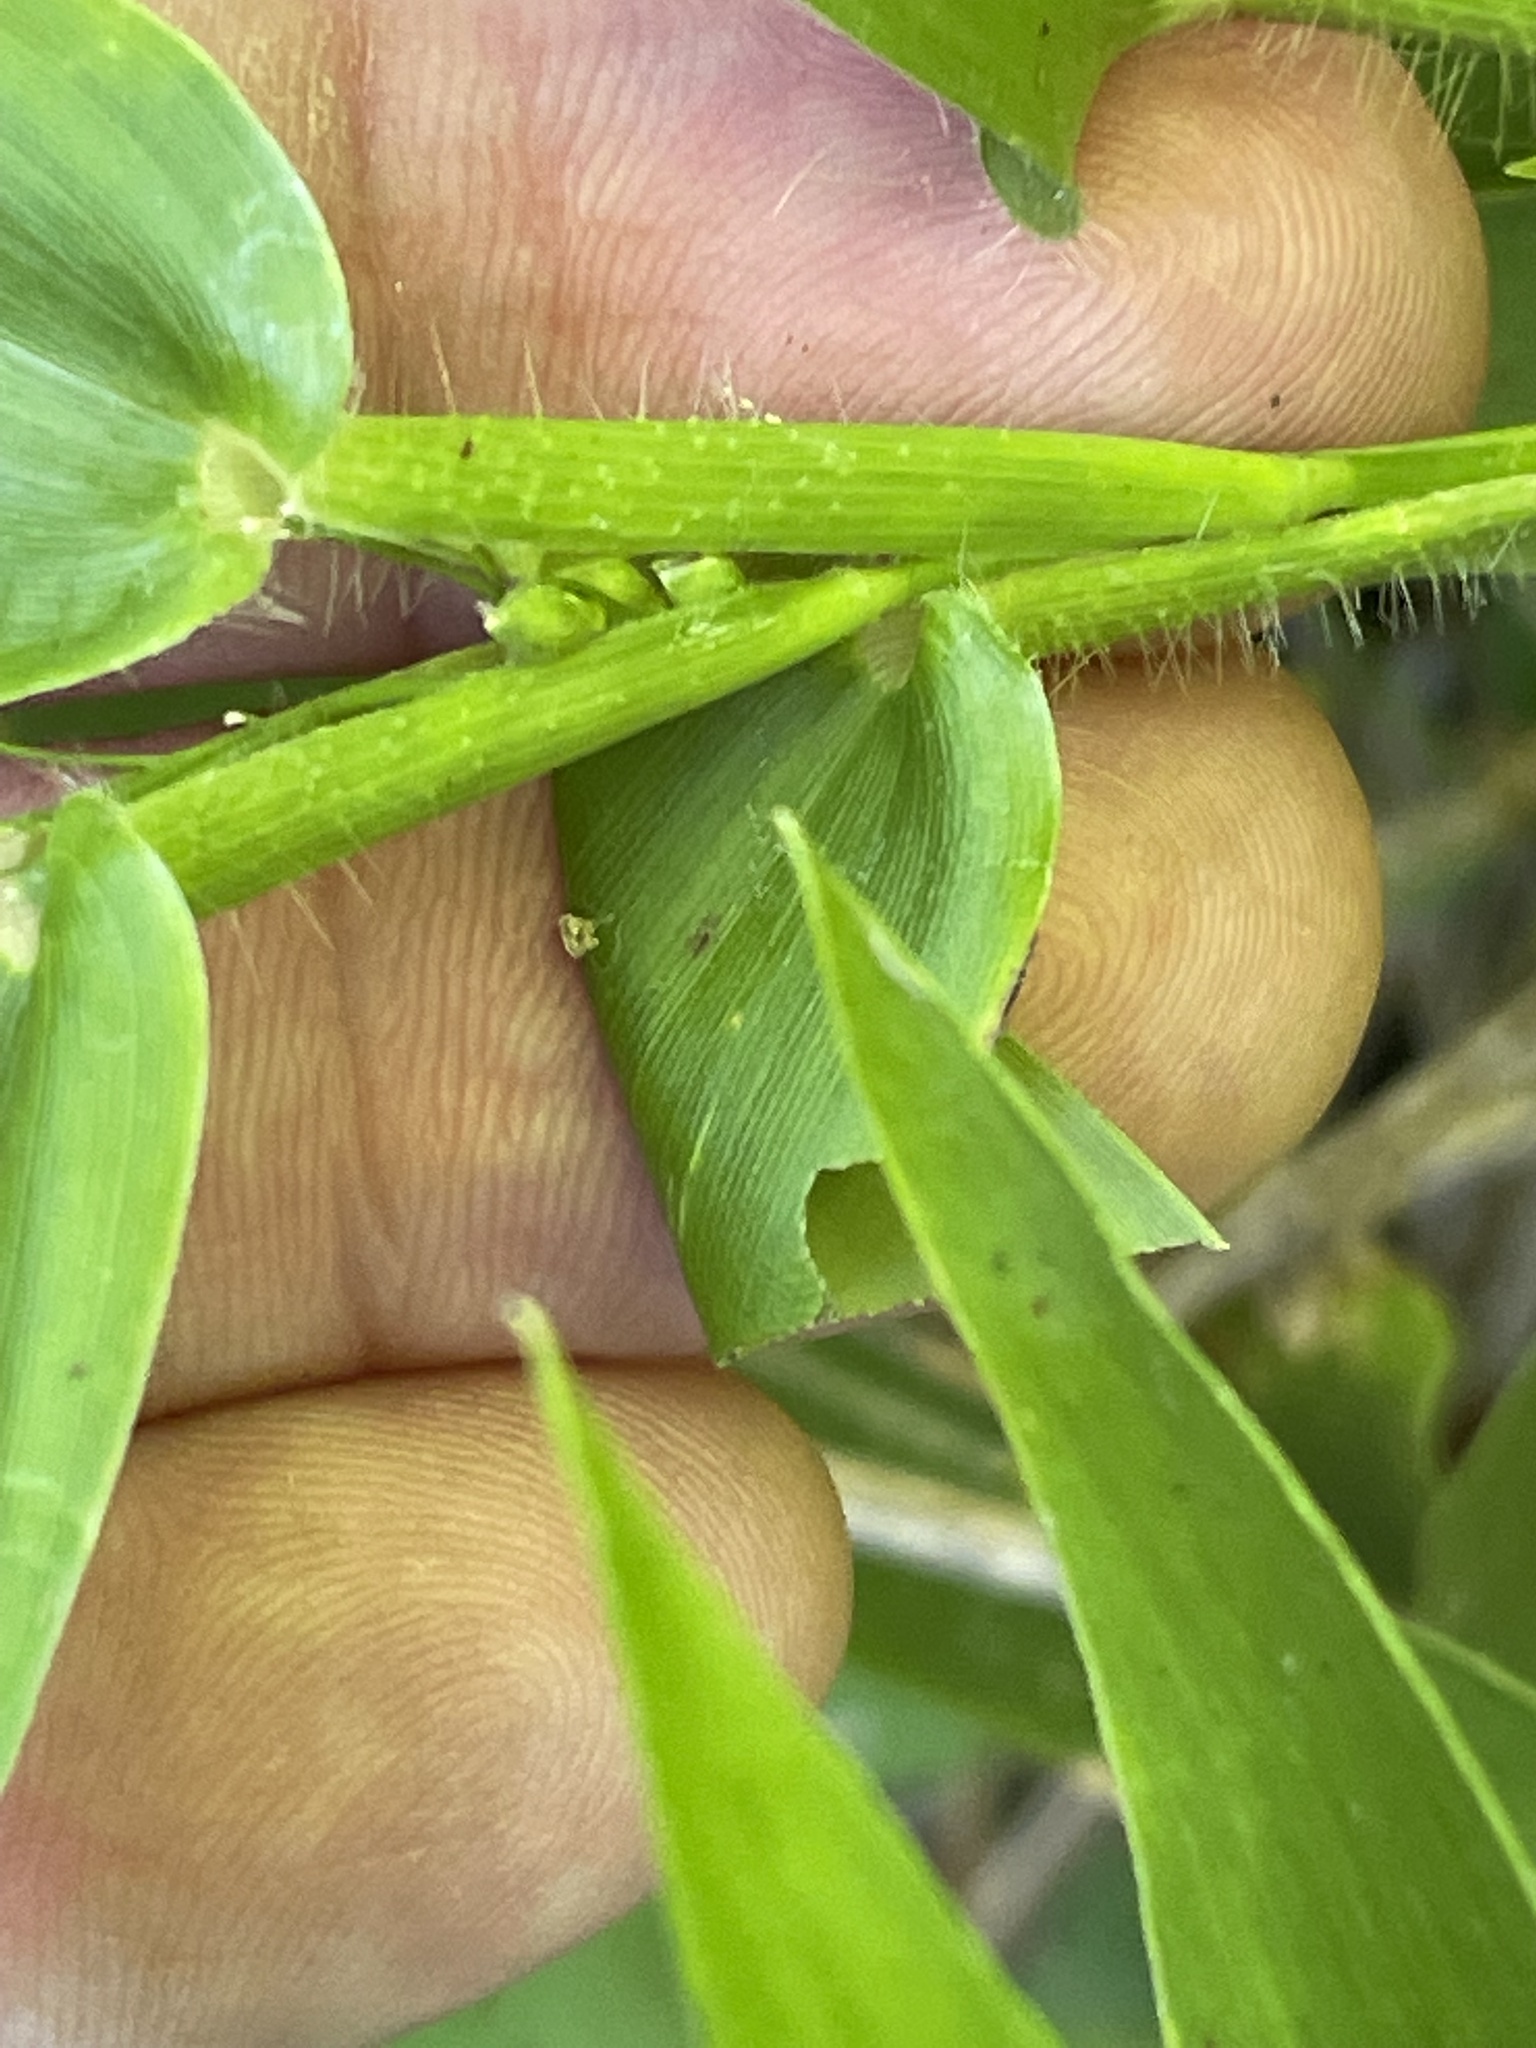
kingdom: Plantae
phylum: Tracheophyta
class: Liliopsida
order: Poales
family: Poaceae
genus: Dichanthelium
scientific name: Dichanthelium clandestinum
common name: Deer-tongue grass
